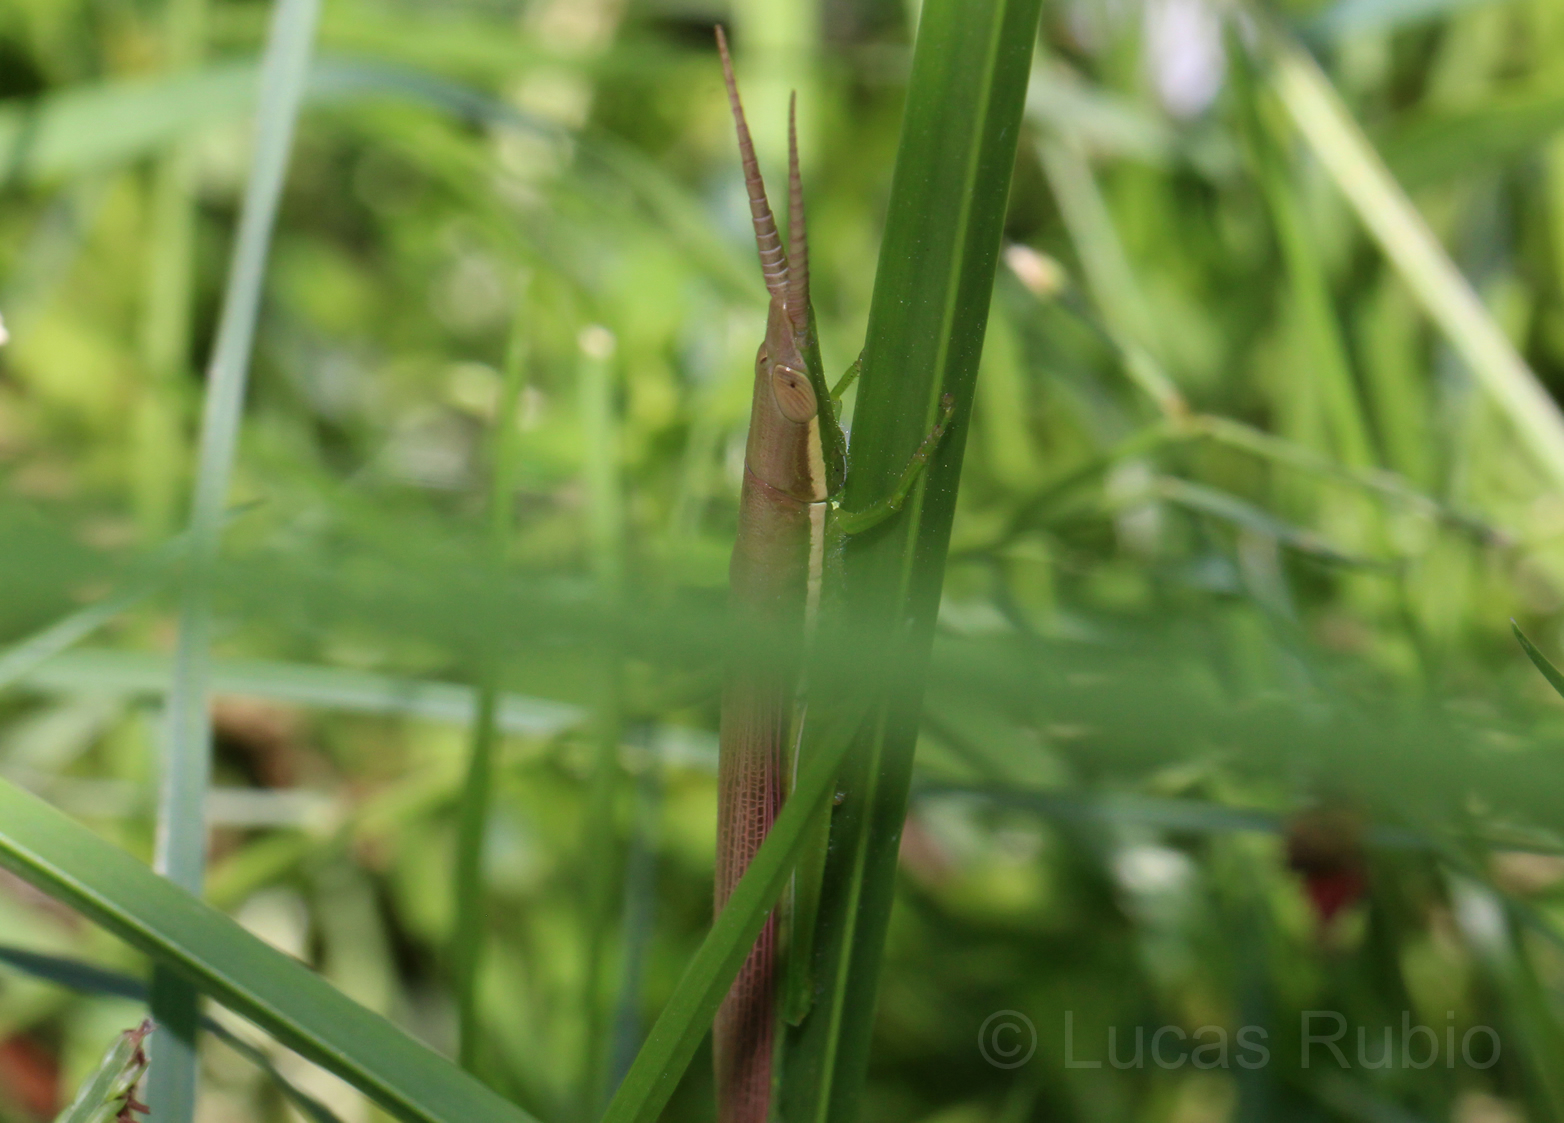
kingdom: Animalia
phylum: Arthropoda
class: Insecta
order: Orthoptera
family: Acrididae
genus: Leptysma
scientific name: Leptysma argentina
